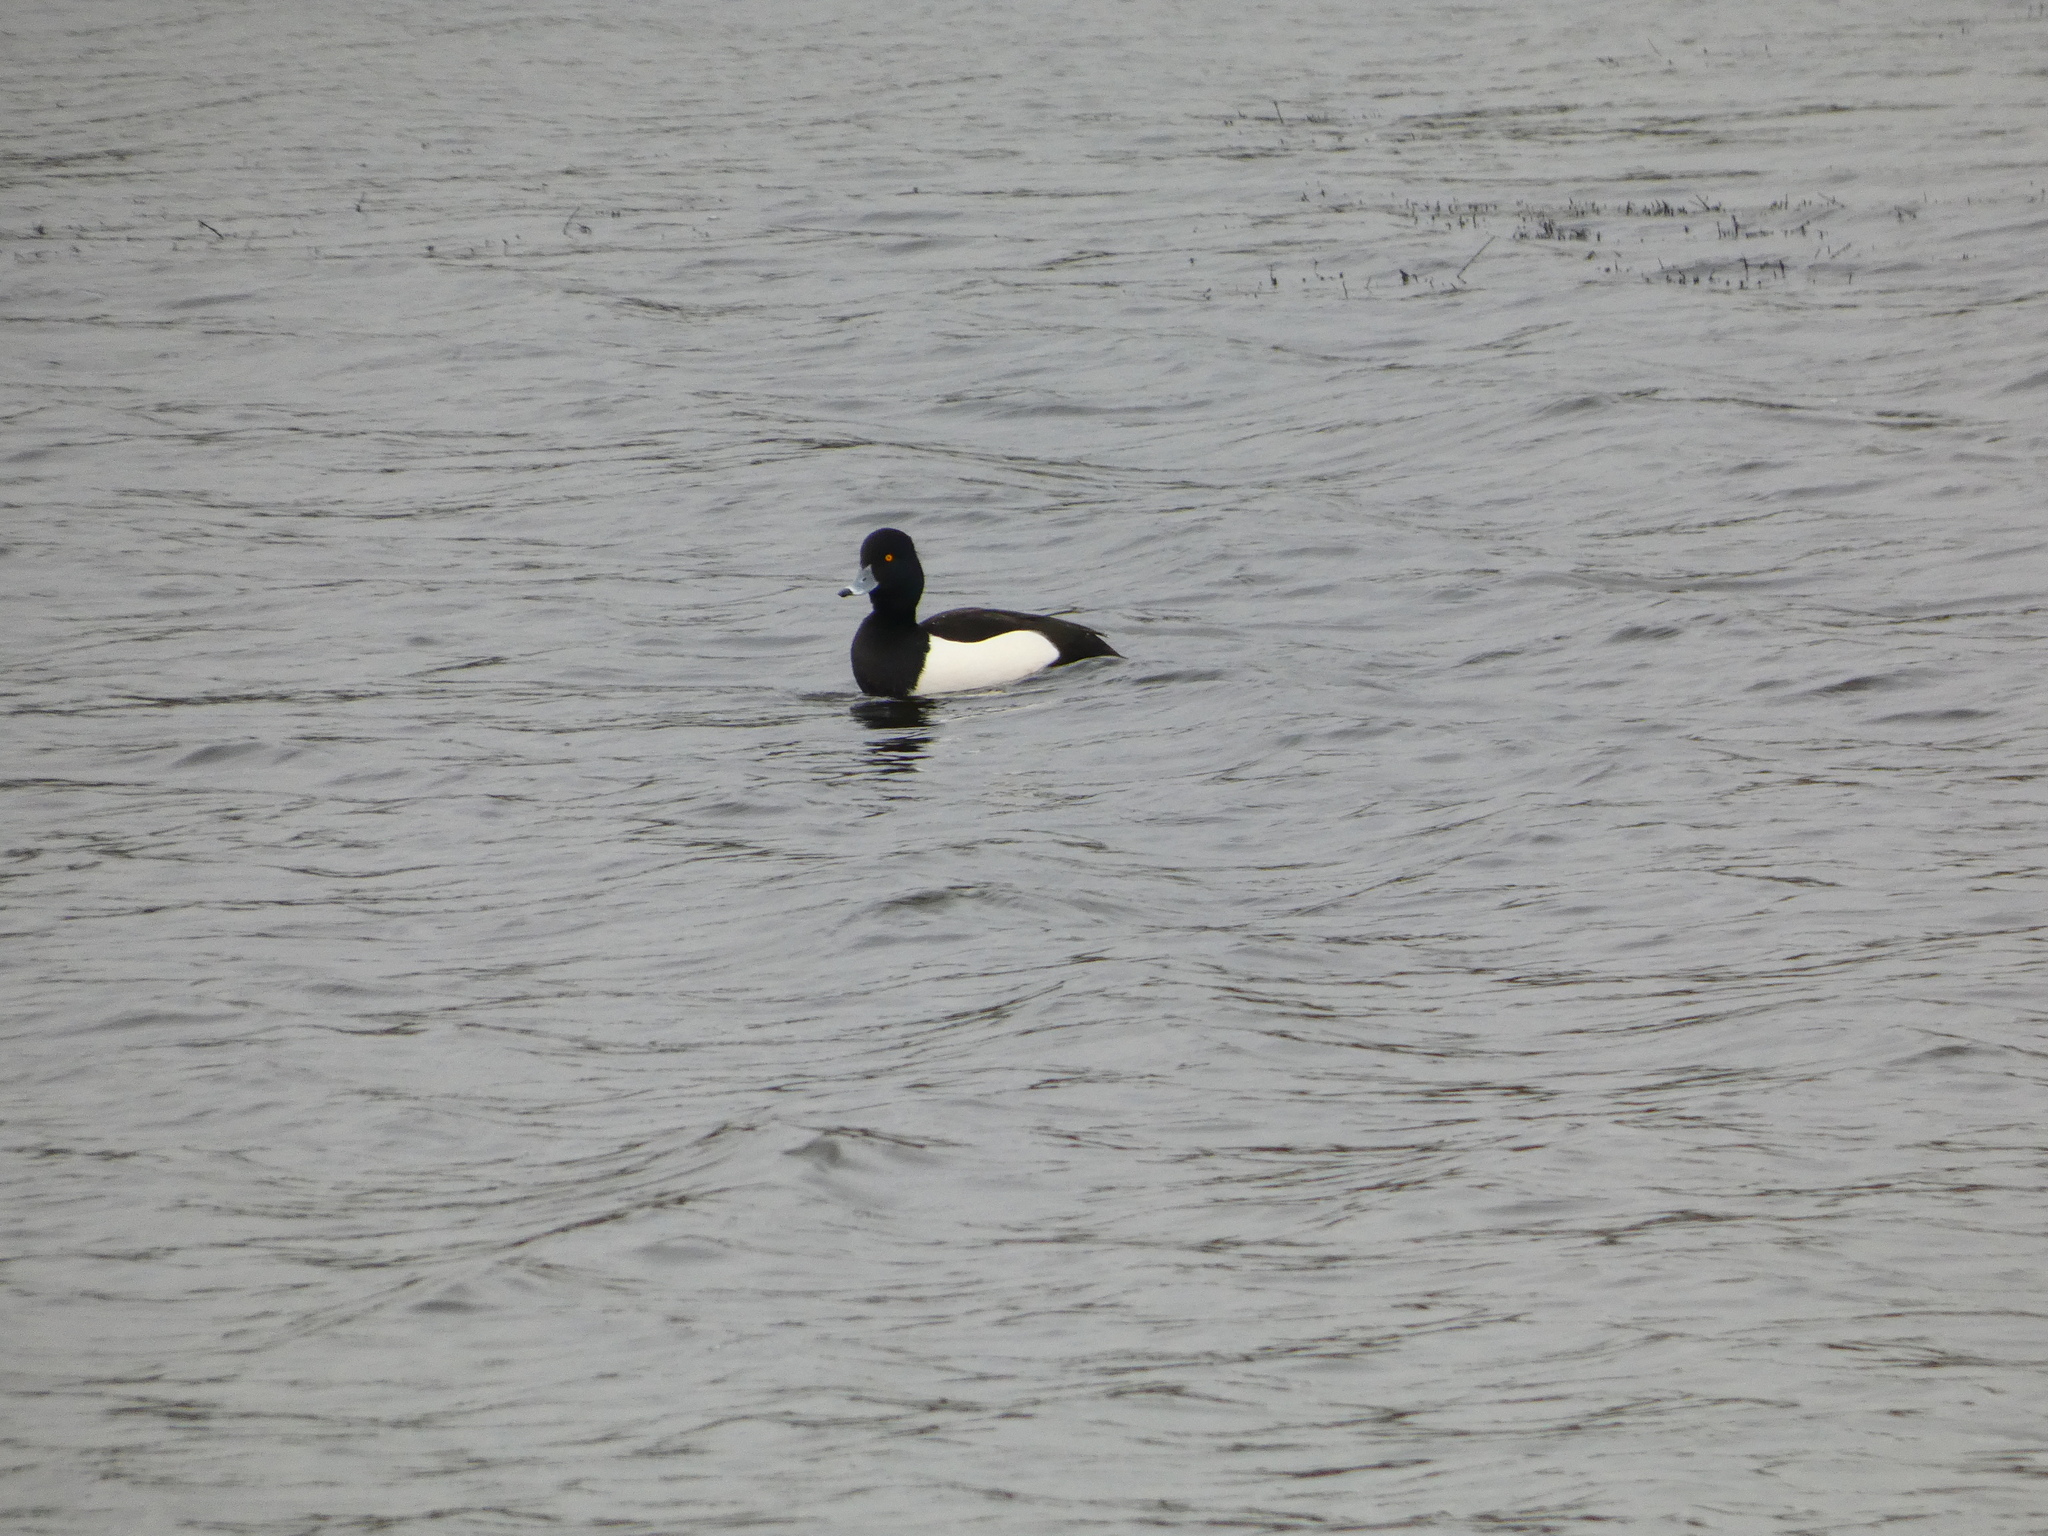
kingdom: Animalia
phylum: Chordata
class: Aves
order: Anseriformes
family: Anatidae
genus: Aythya
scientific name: Aythya fuligula
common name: Tufted duck
